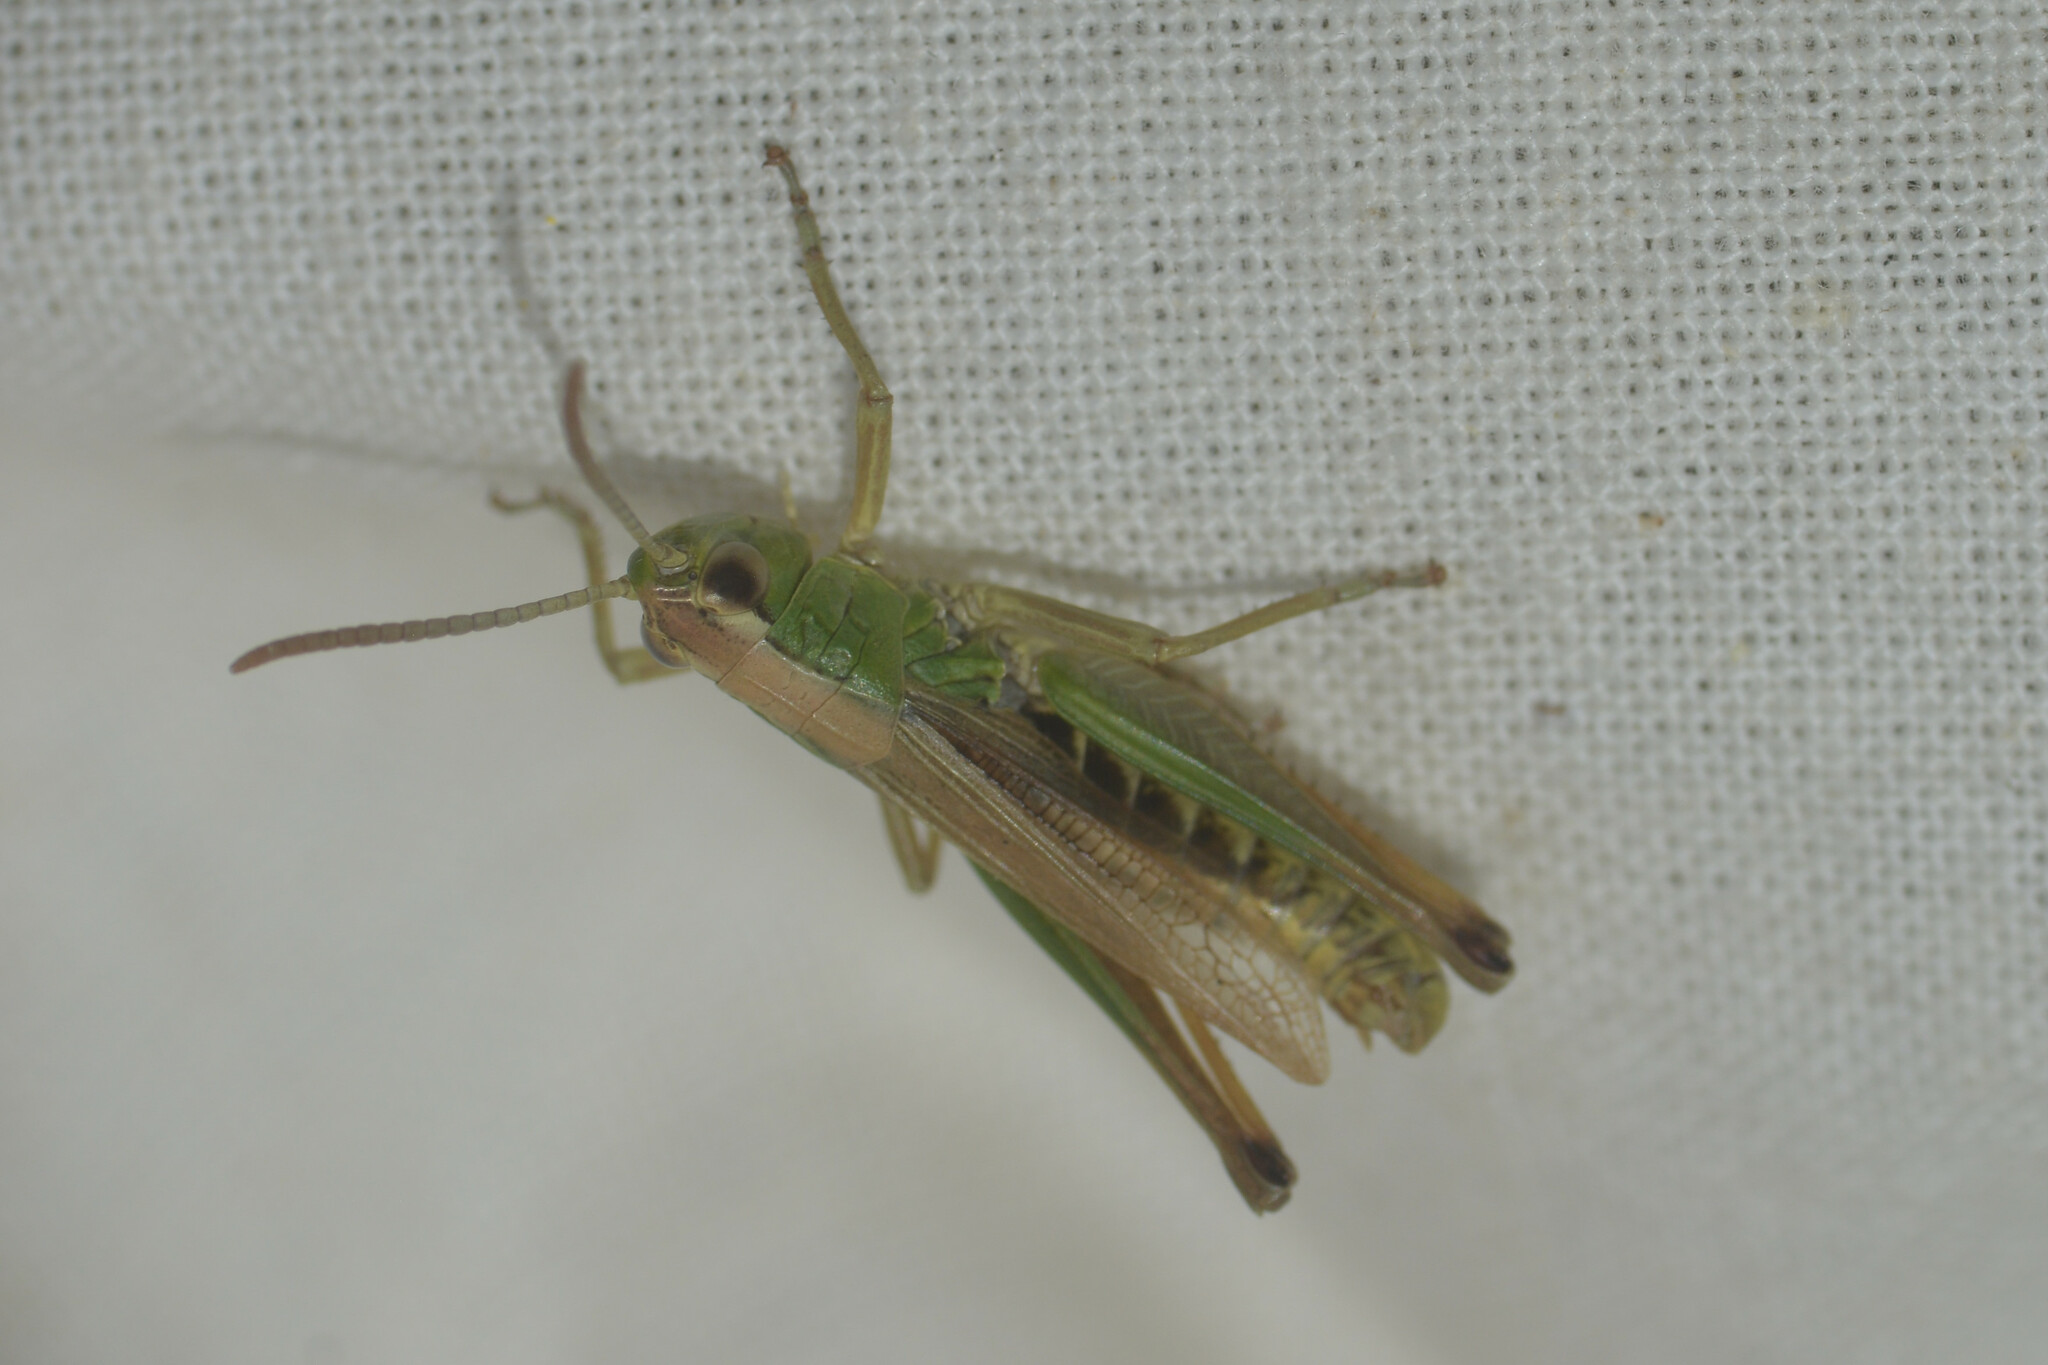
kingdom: Animalia
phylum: Arthropoda
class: Insecta
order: Orthoptera
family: Acrididae
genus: Pseudochorthippus
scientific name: Pseudochorthippus parallelus
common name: Meadow grasshopper
